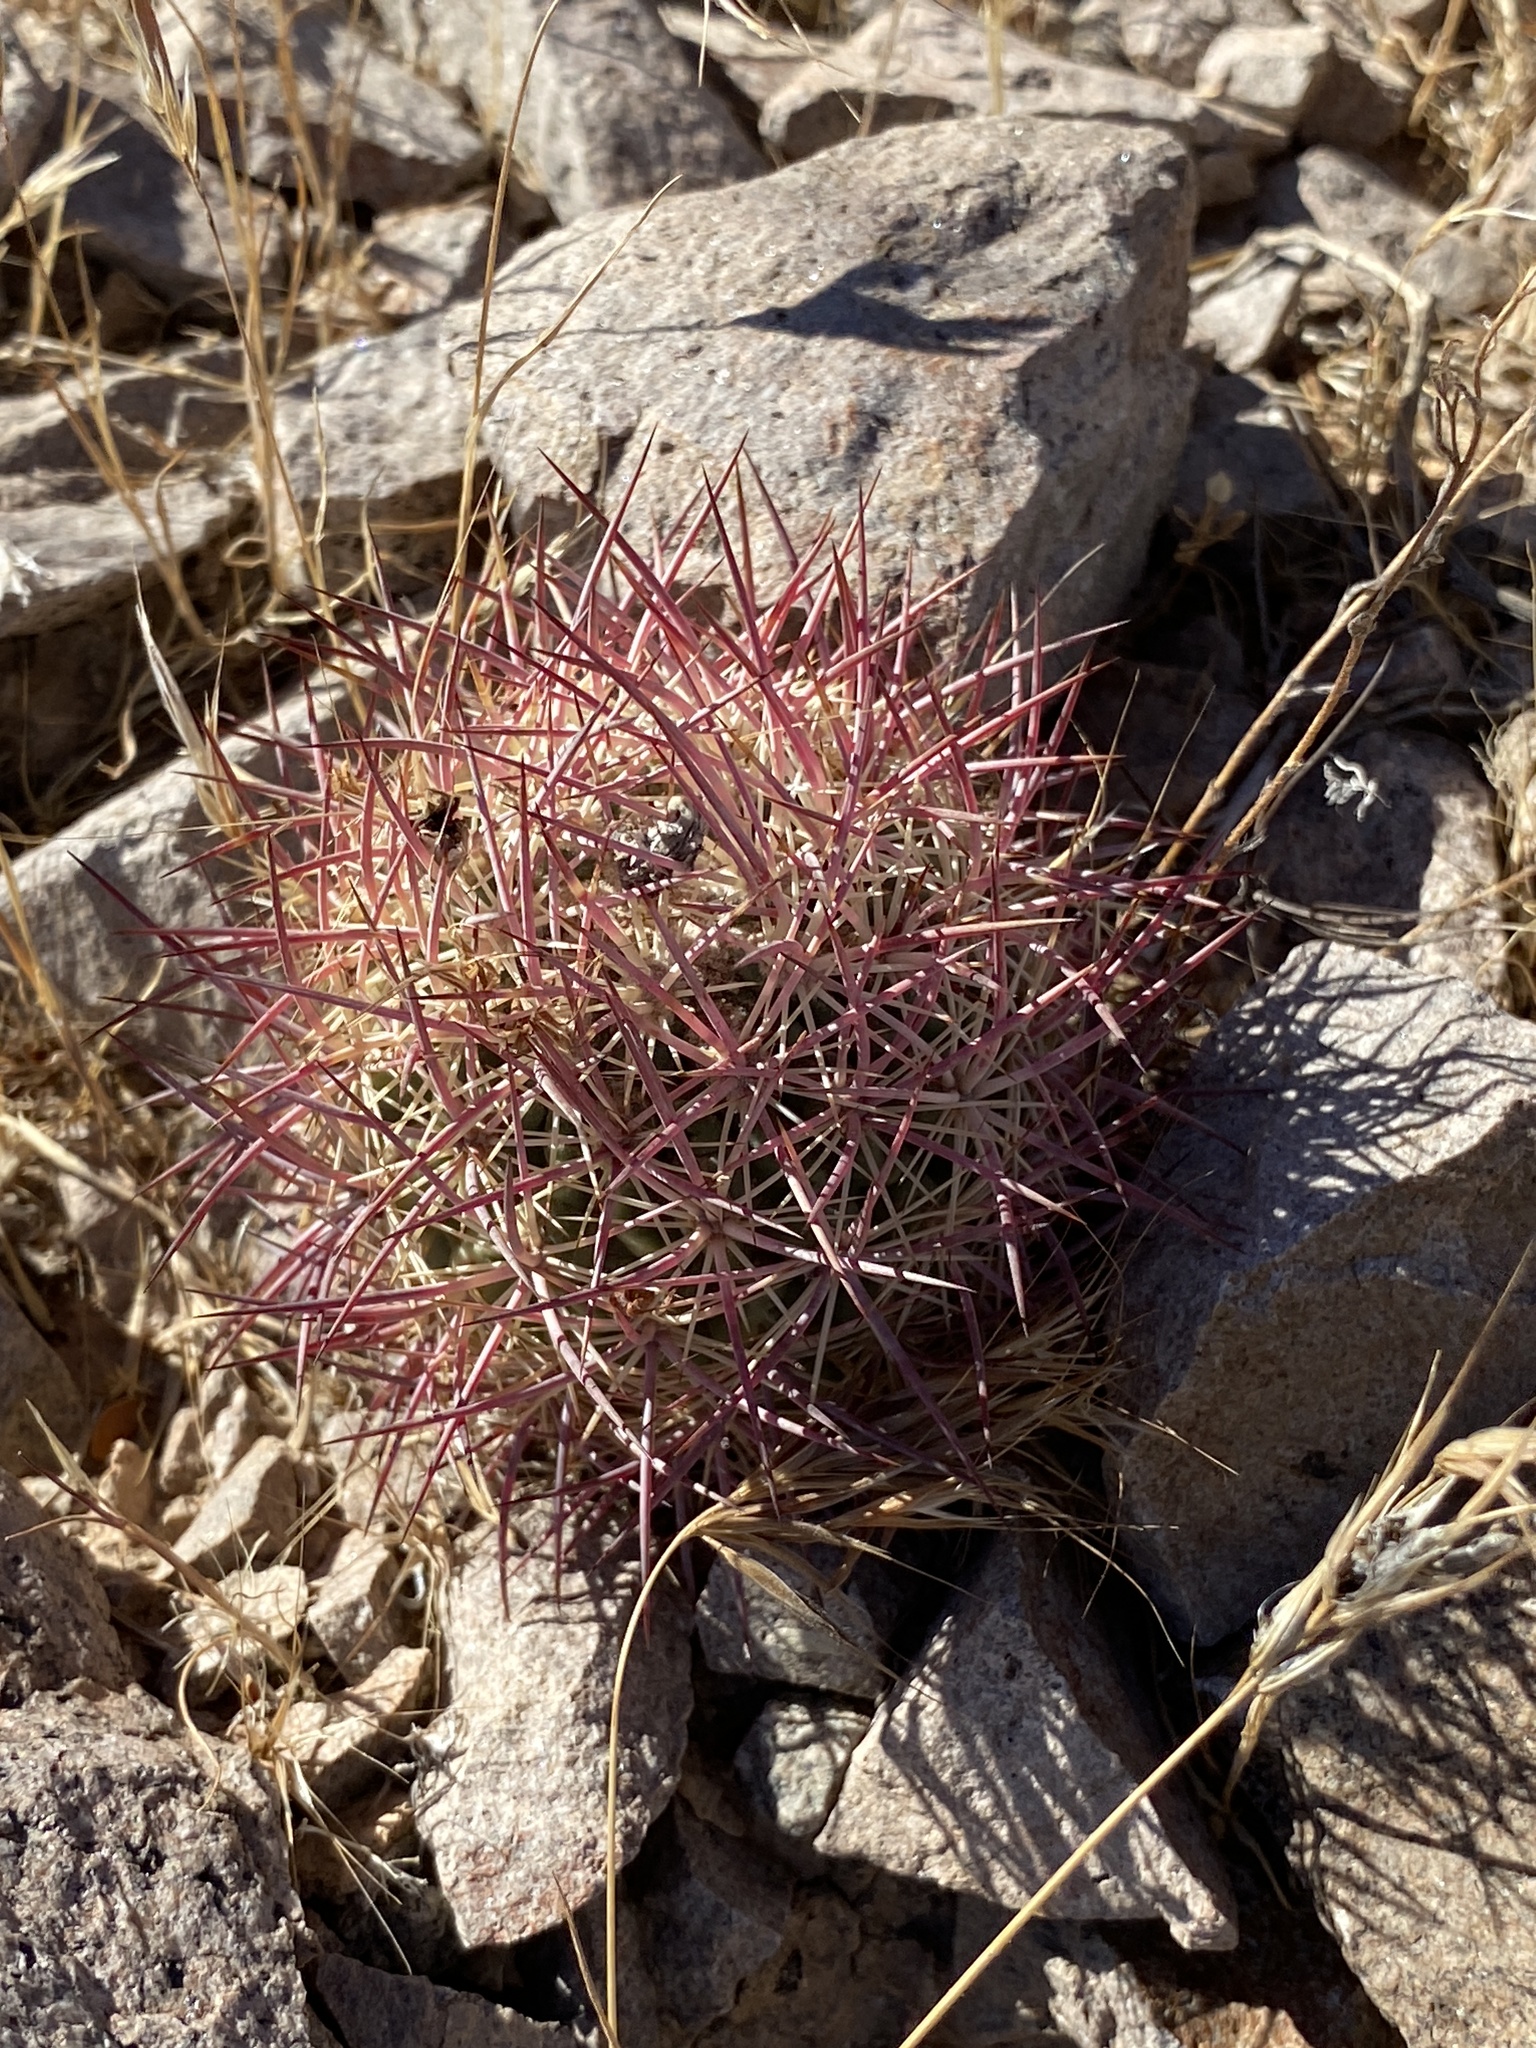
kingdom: Plantae
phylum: Tracheophyta
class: Magnoliopsida
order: Caryophyllales
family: Cactaceae
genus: Sclerocactus
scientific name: Sclerocactus johnsonii
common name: Eight-spine fishhook cactus
